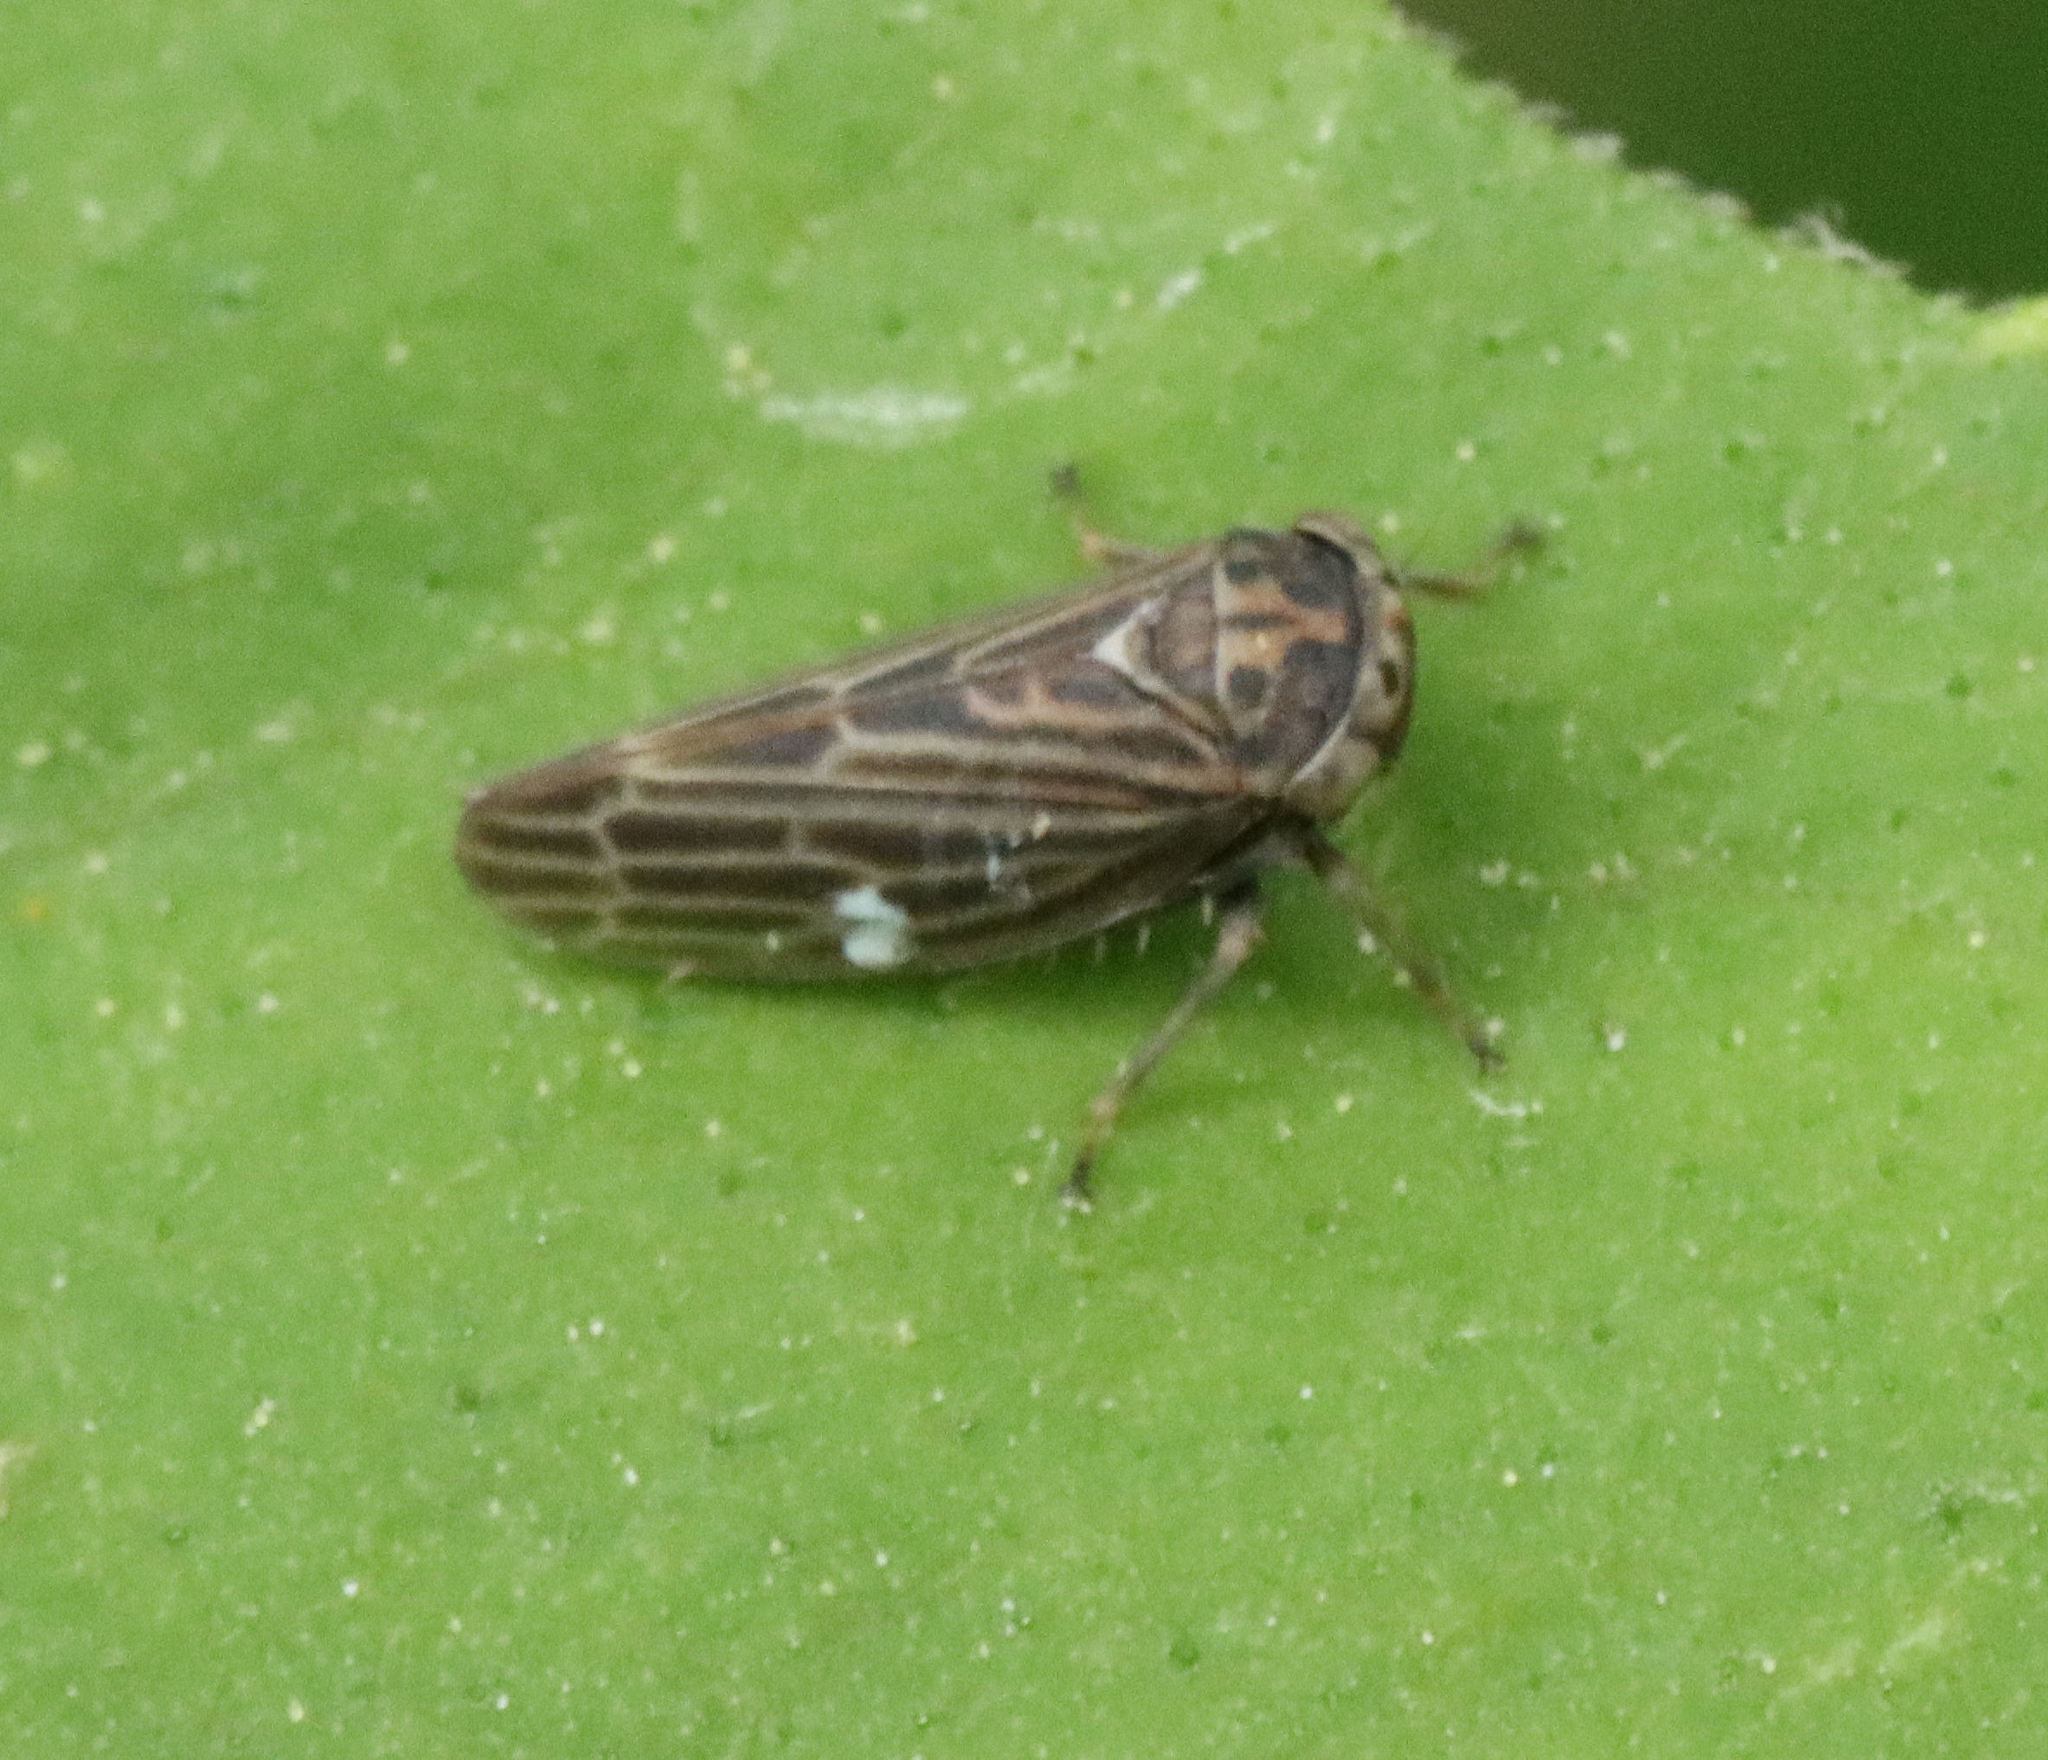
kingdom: Animalia
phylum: Arthropoda
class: Insecta
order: Hemiptera
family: Cicadellidae
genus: Agalliota
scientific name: Agalliota quadripunctata
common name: The four-spotted clover leafhopper
